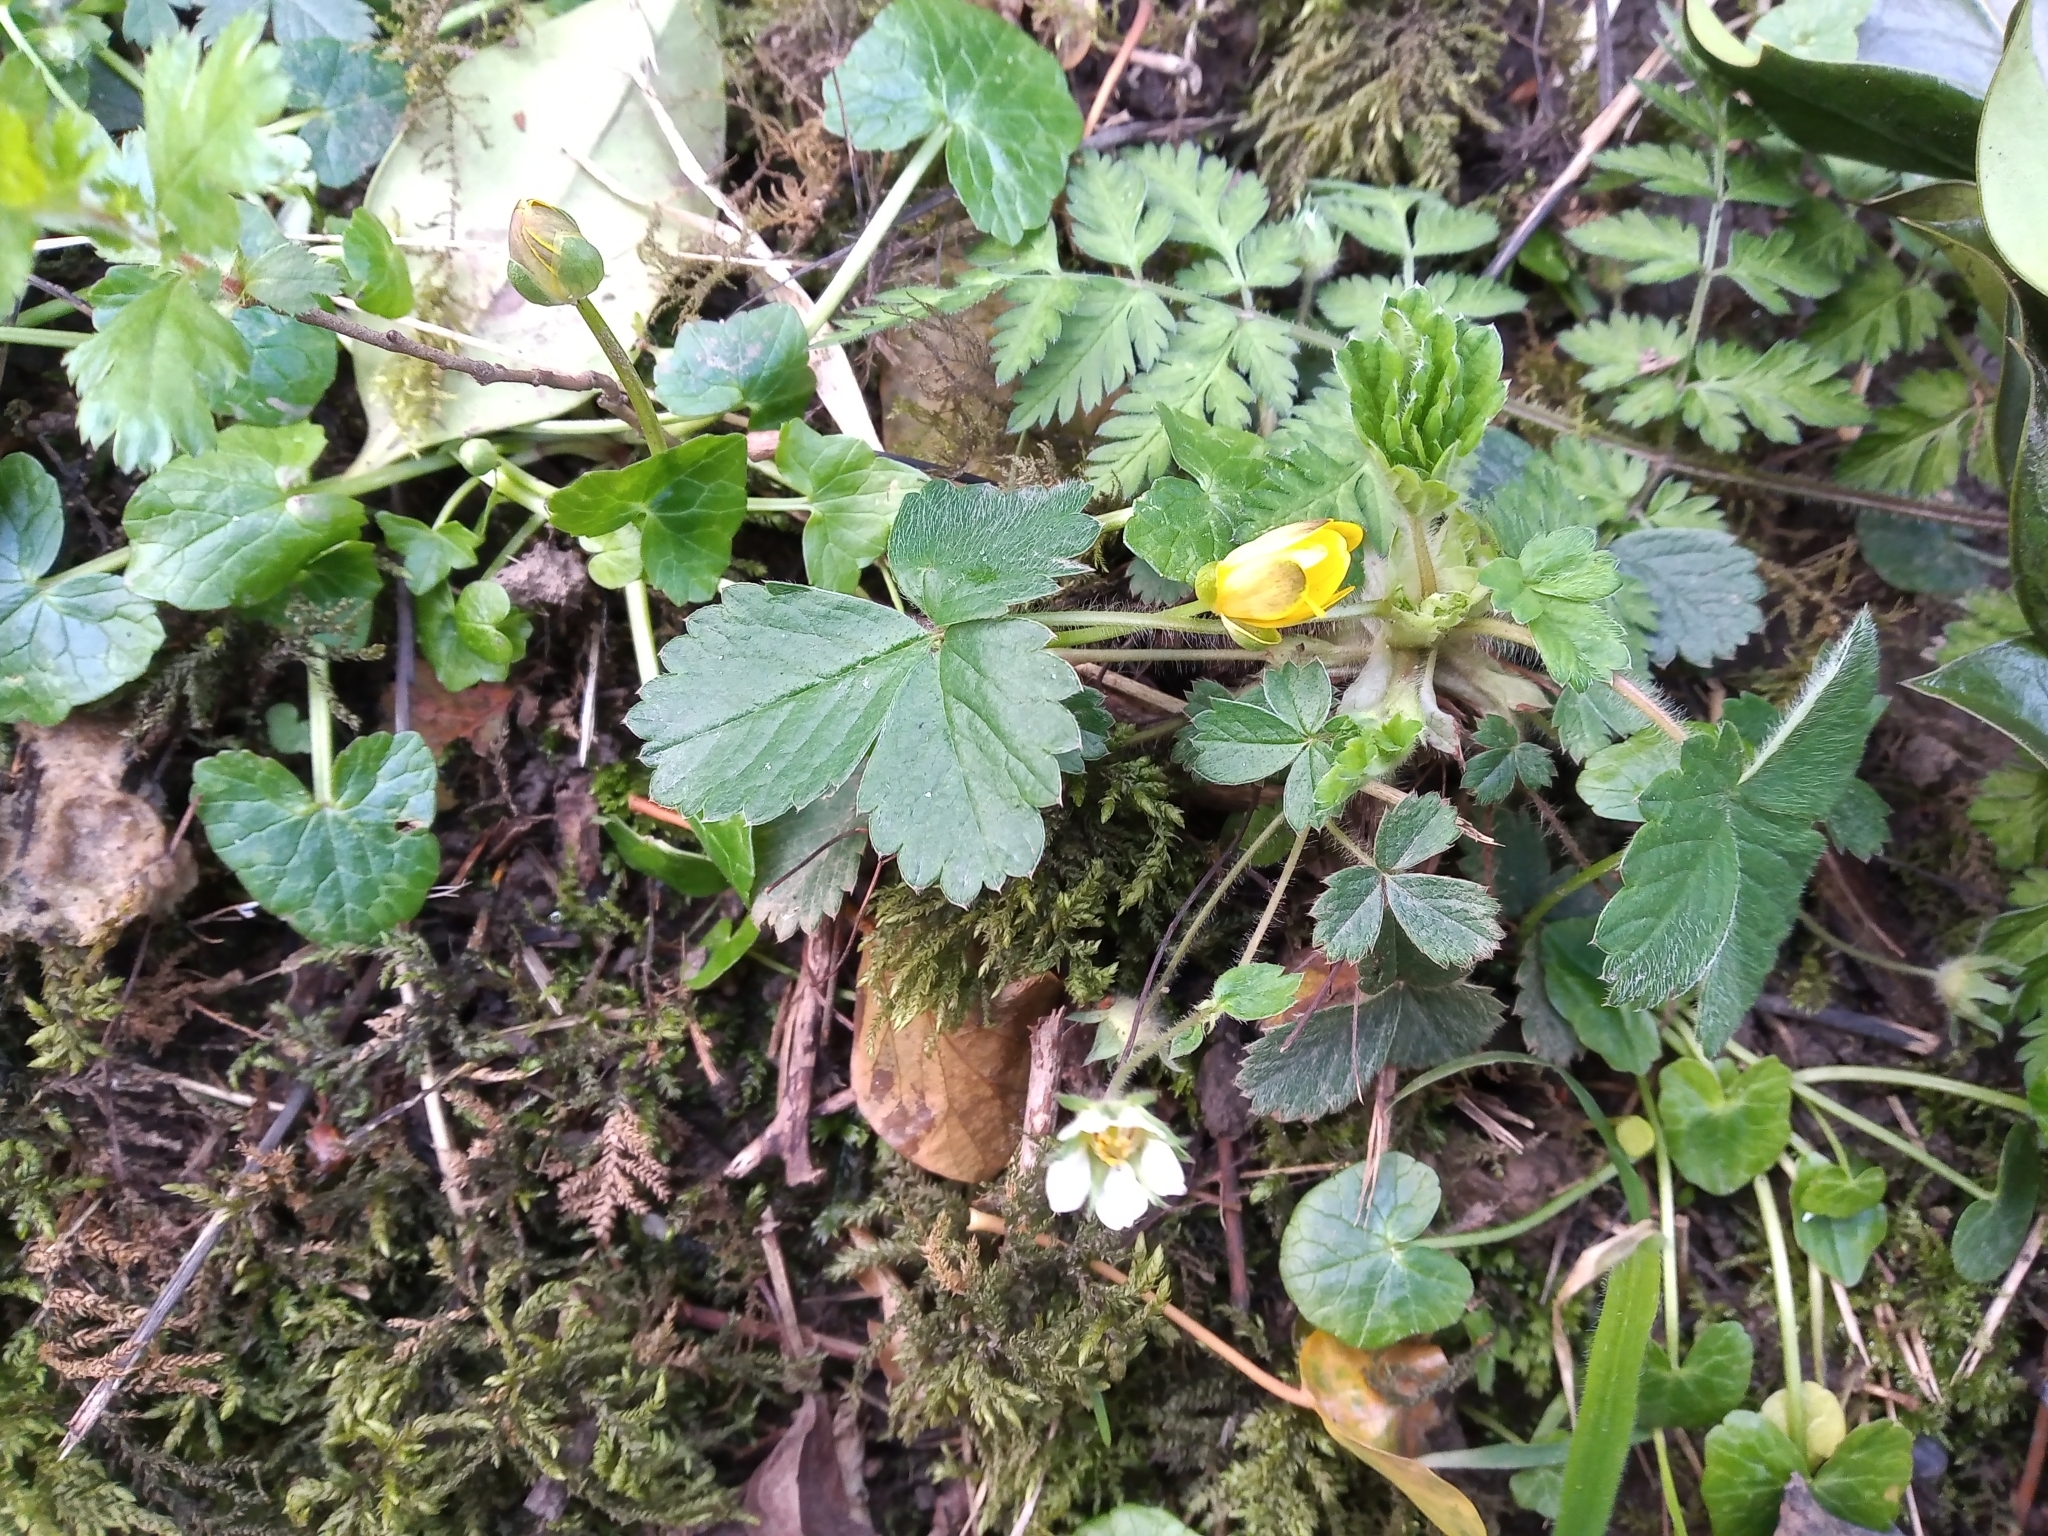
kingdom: Plantae
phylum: Tracheophyta
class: Magnoliopsida
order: Rosales
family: Rosaceae
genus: Potentilla
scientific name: Potentilla sterilis
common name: Barren strawberry
